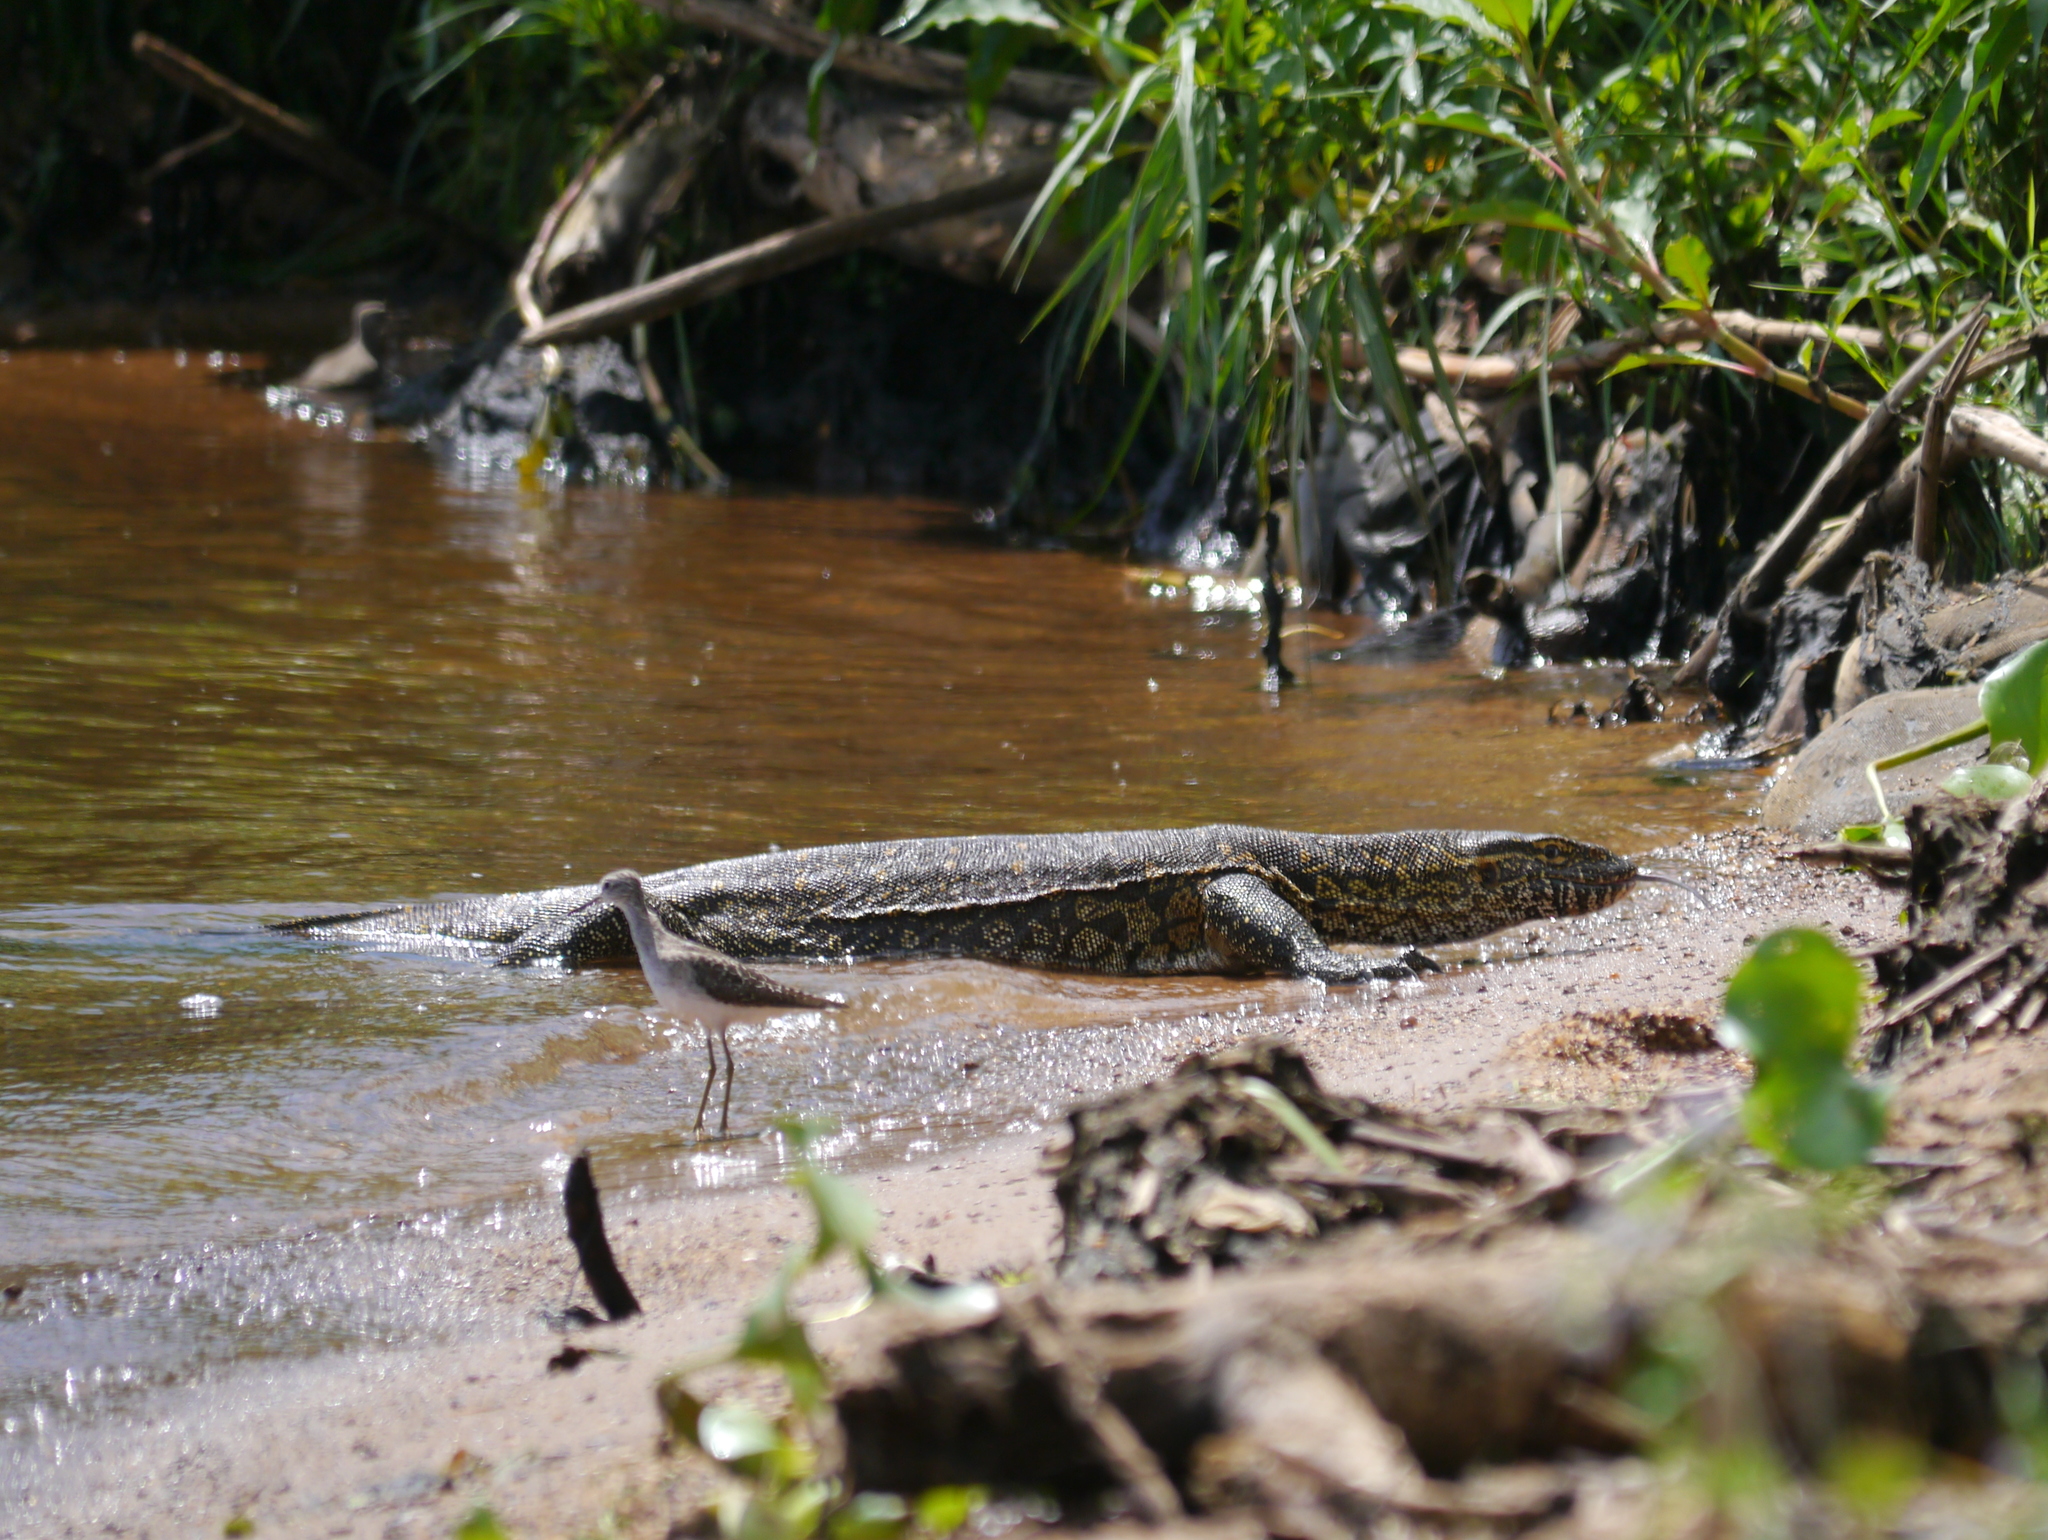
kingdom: Animalia
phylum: Chordata
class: Squamata
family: Varanidae
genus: Varanus
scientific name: Varanus niloticus
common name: Nile monitor
